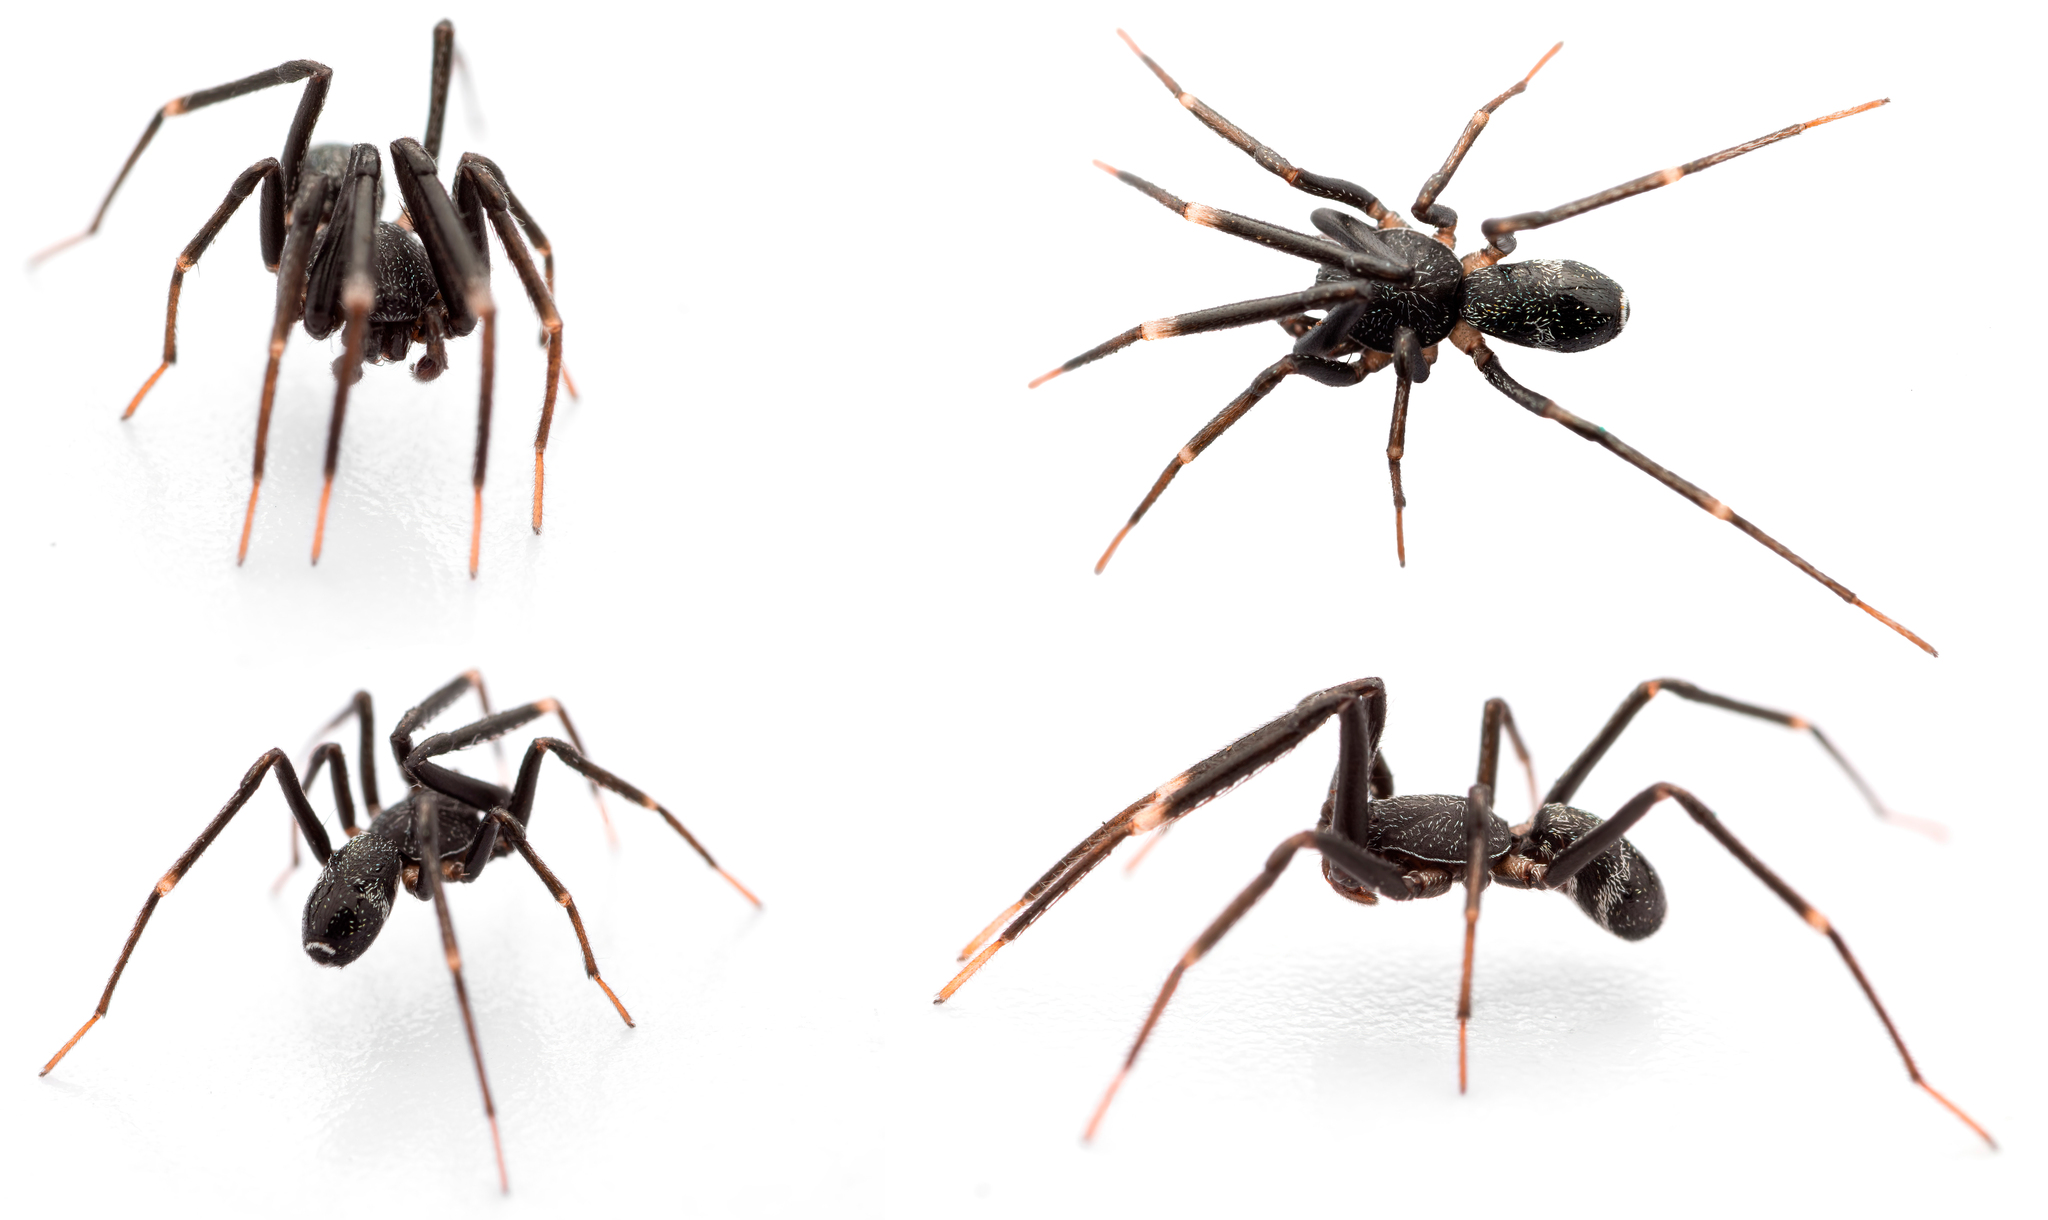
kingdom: Animalia
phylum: Arthropoda
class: Arachnida
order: Araneae
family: Phrurolithidae
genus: Liophrurillus
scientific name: Liophrurillus flavitarsis
